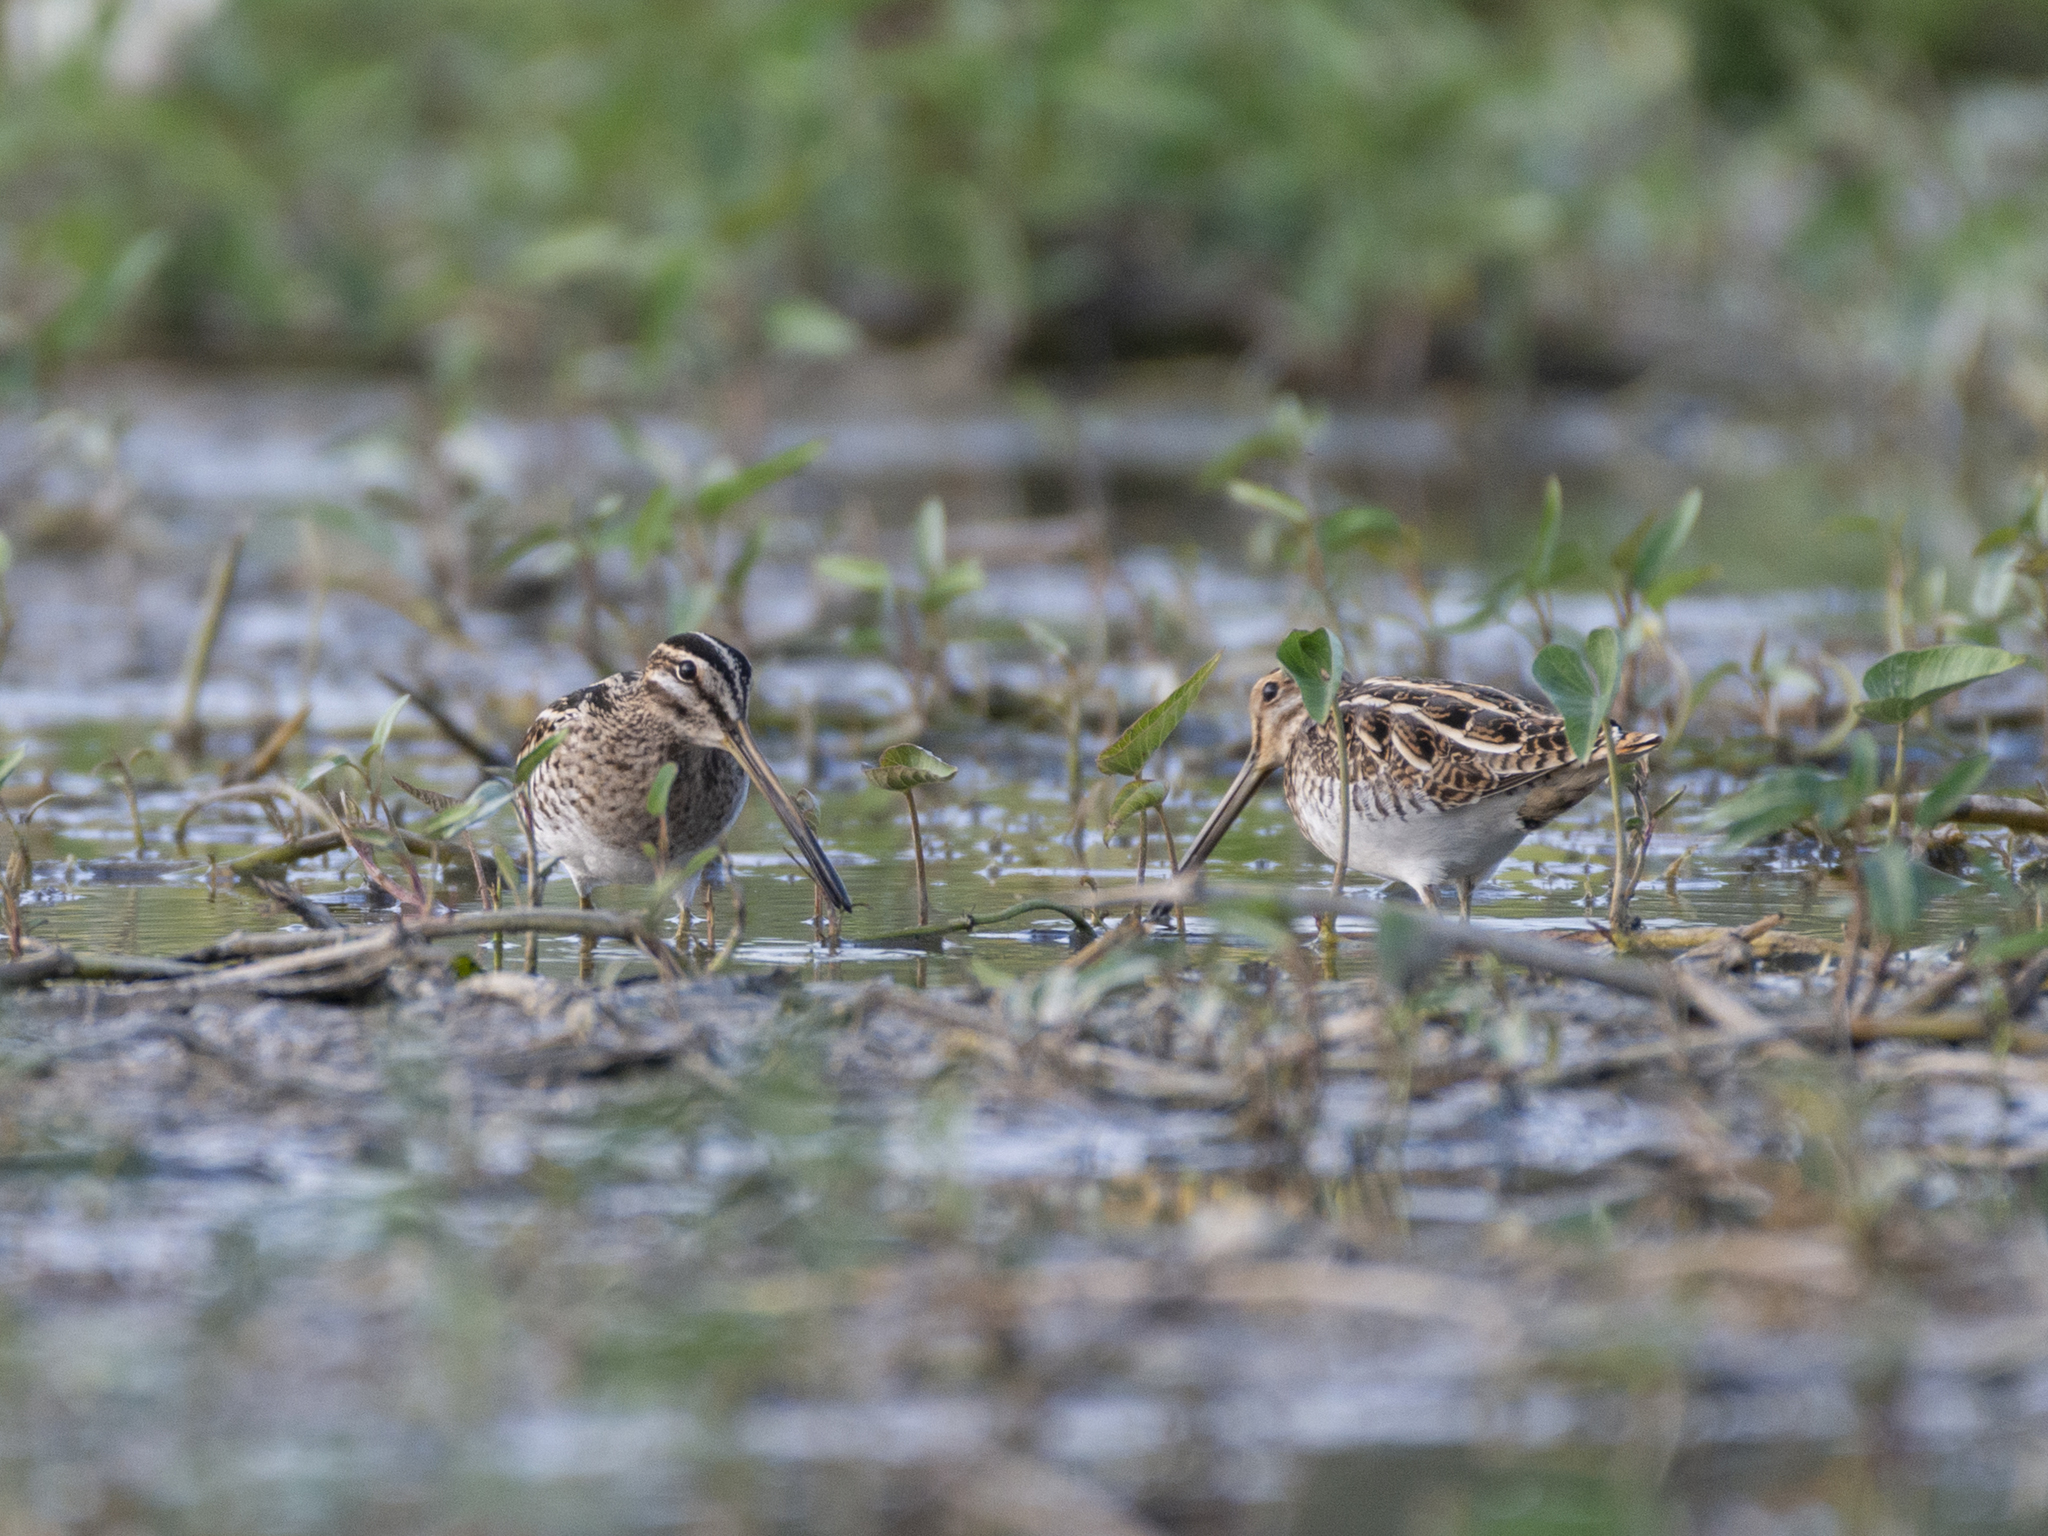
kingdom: Animalia
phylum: Chordata
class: Aves
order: Charadriiformes
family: Scolopacidae
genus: Gallinago
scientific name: Gallinago gallinago
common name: Common snipe
